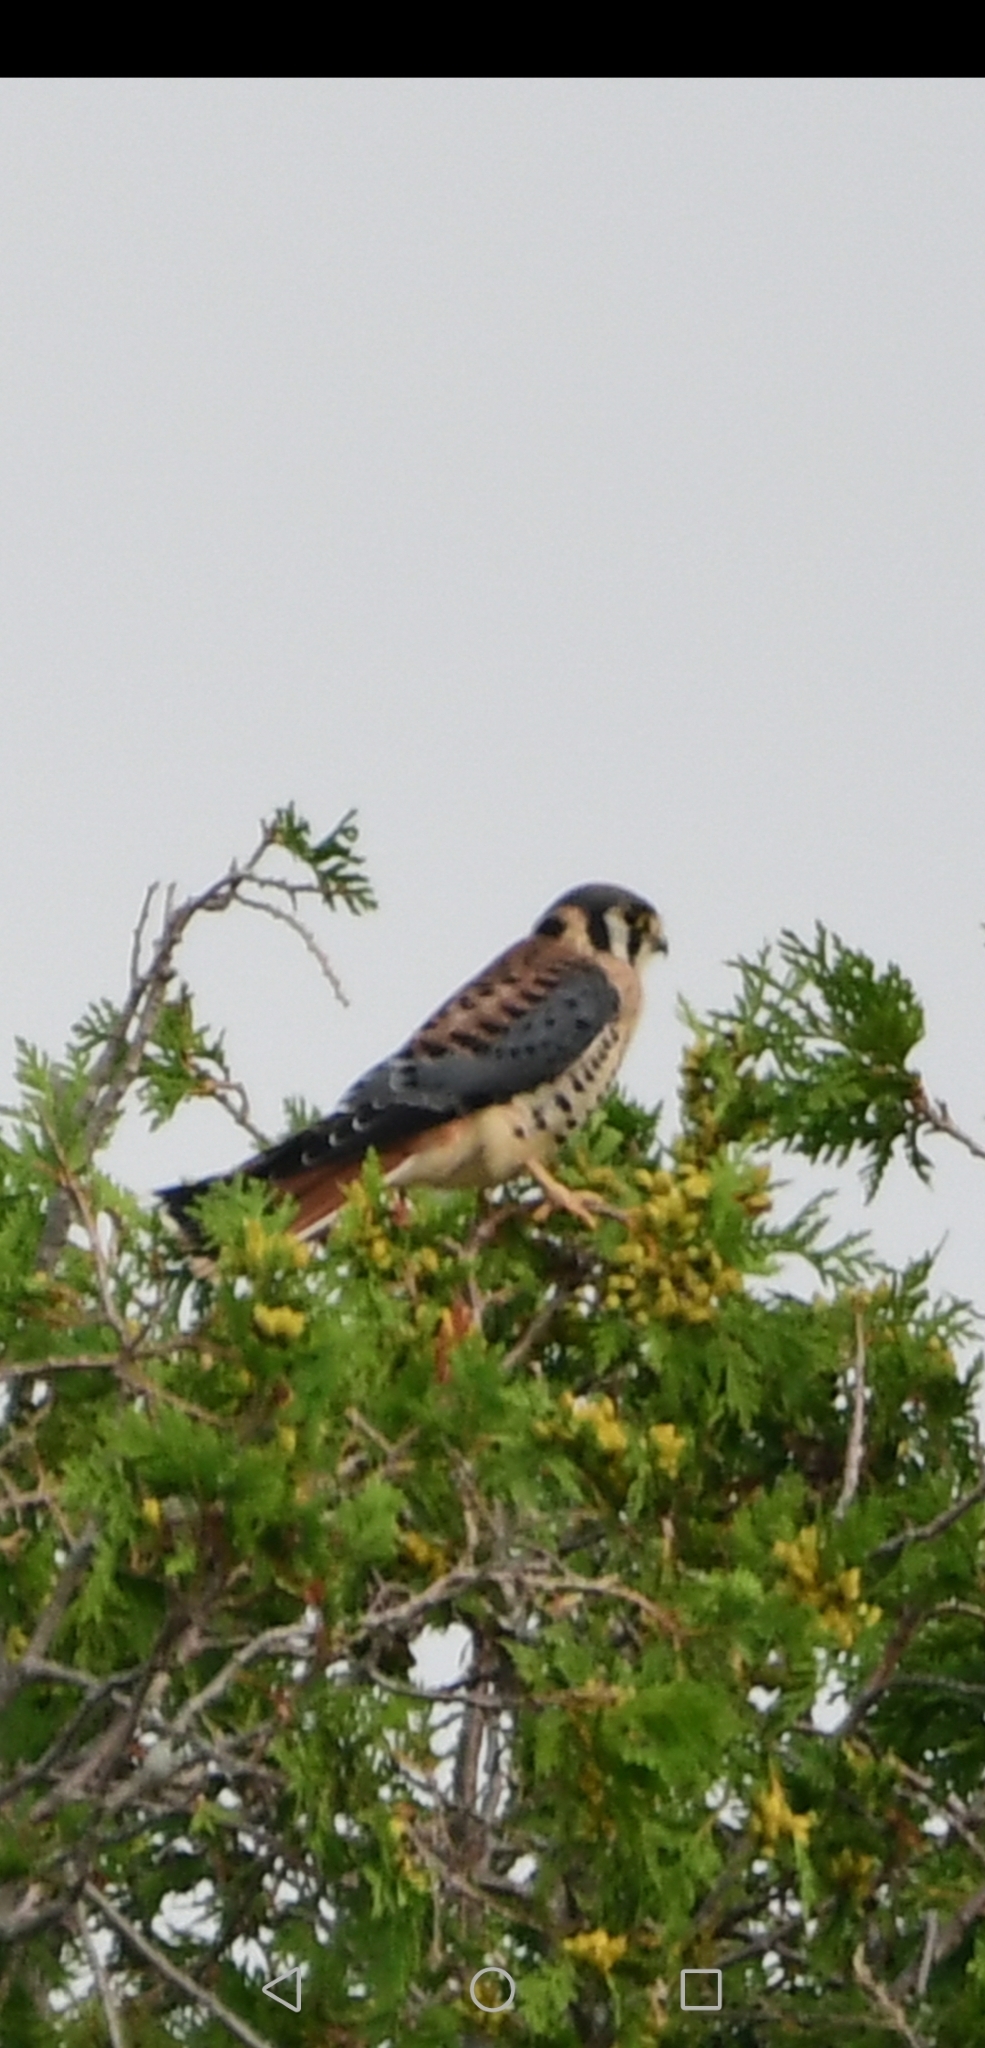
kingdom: Animalia
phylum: Chordata
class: Aves
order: Falconiformes
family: Falconidae
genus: Falco
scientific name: Falco sparverius
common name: American kestrel
